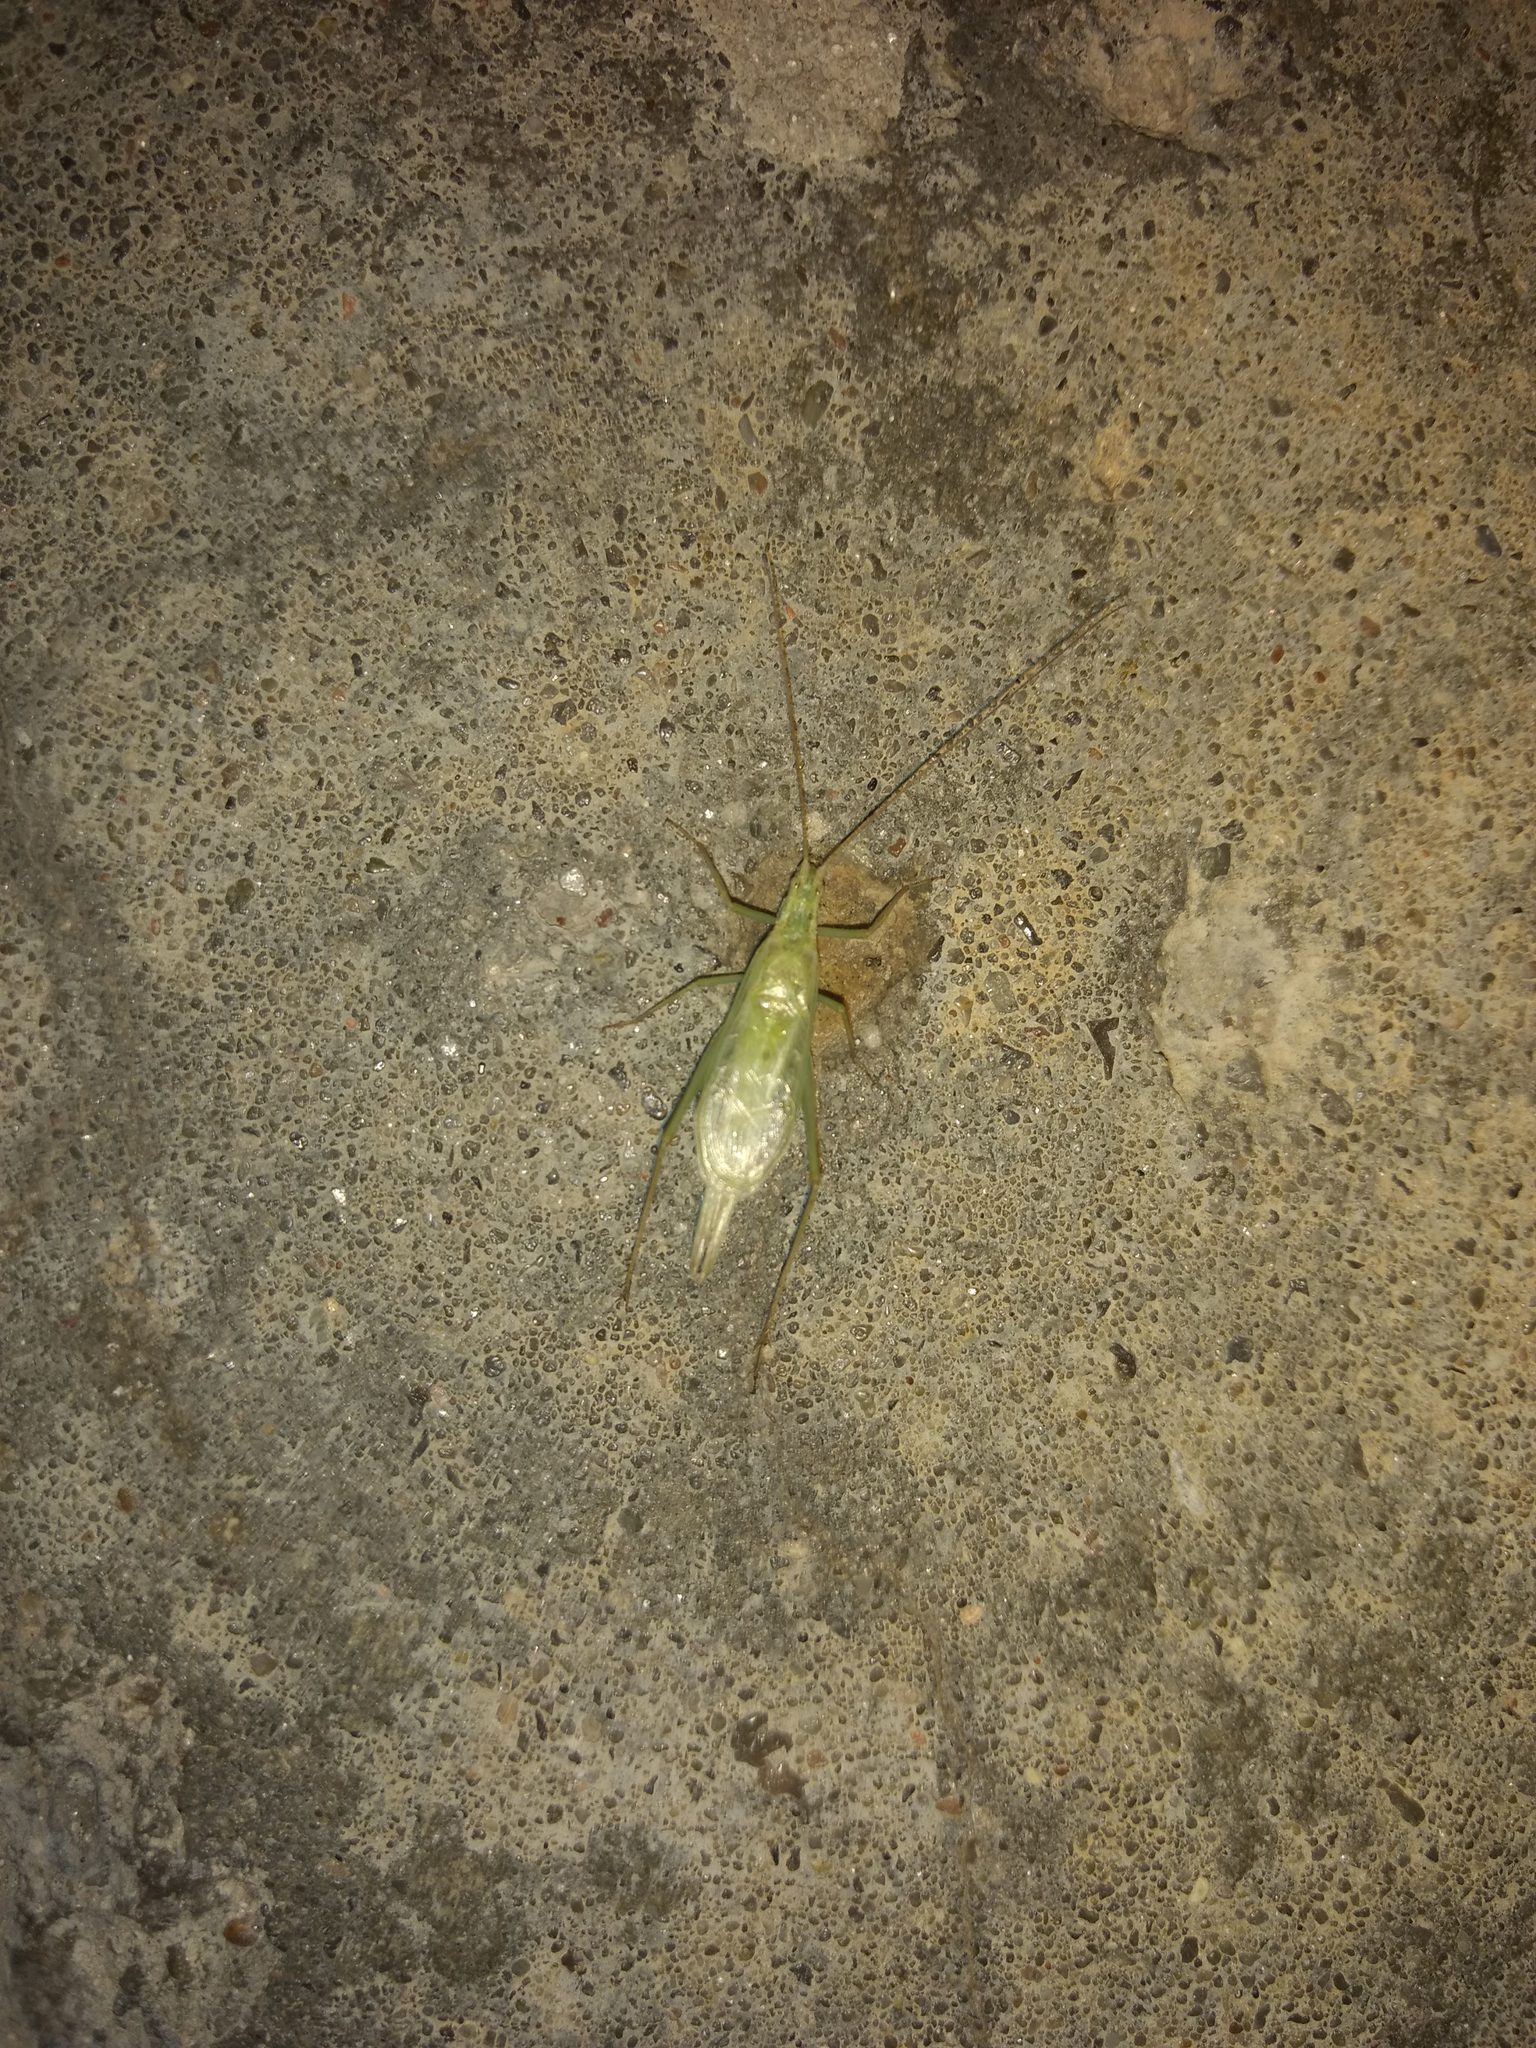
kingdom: Animalia
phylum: Arthropoda
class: Insecta
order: Orthoptera
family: Gryllidae
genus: Oecanthus
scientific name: Oecanthus
